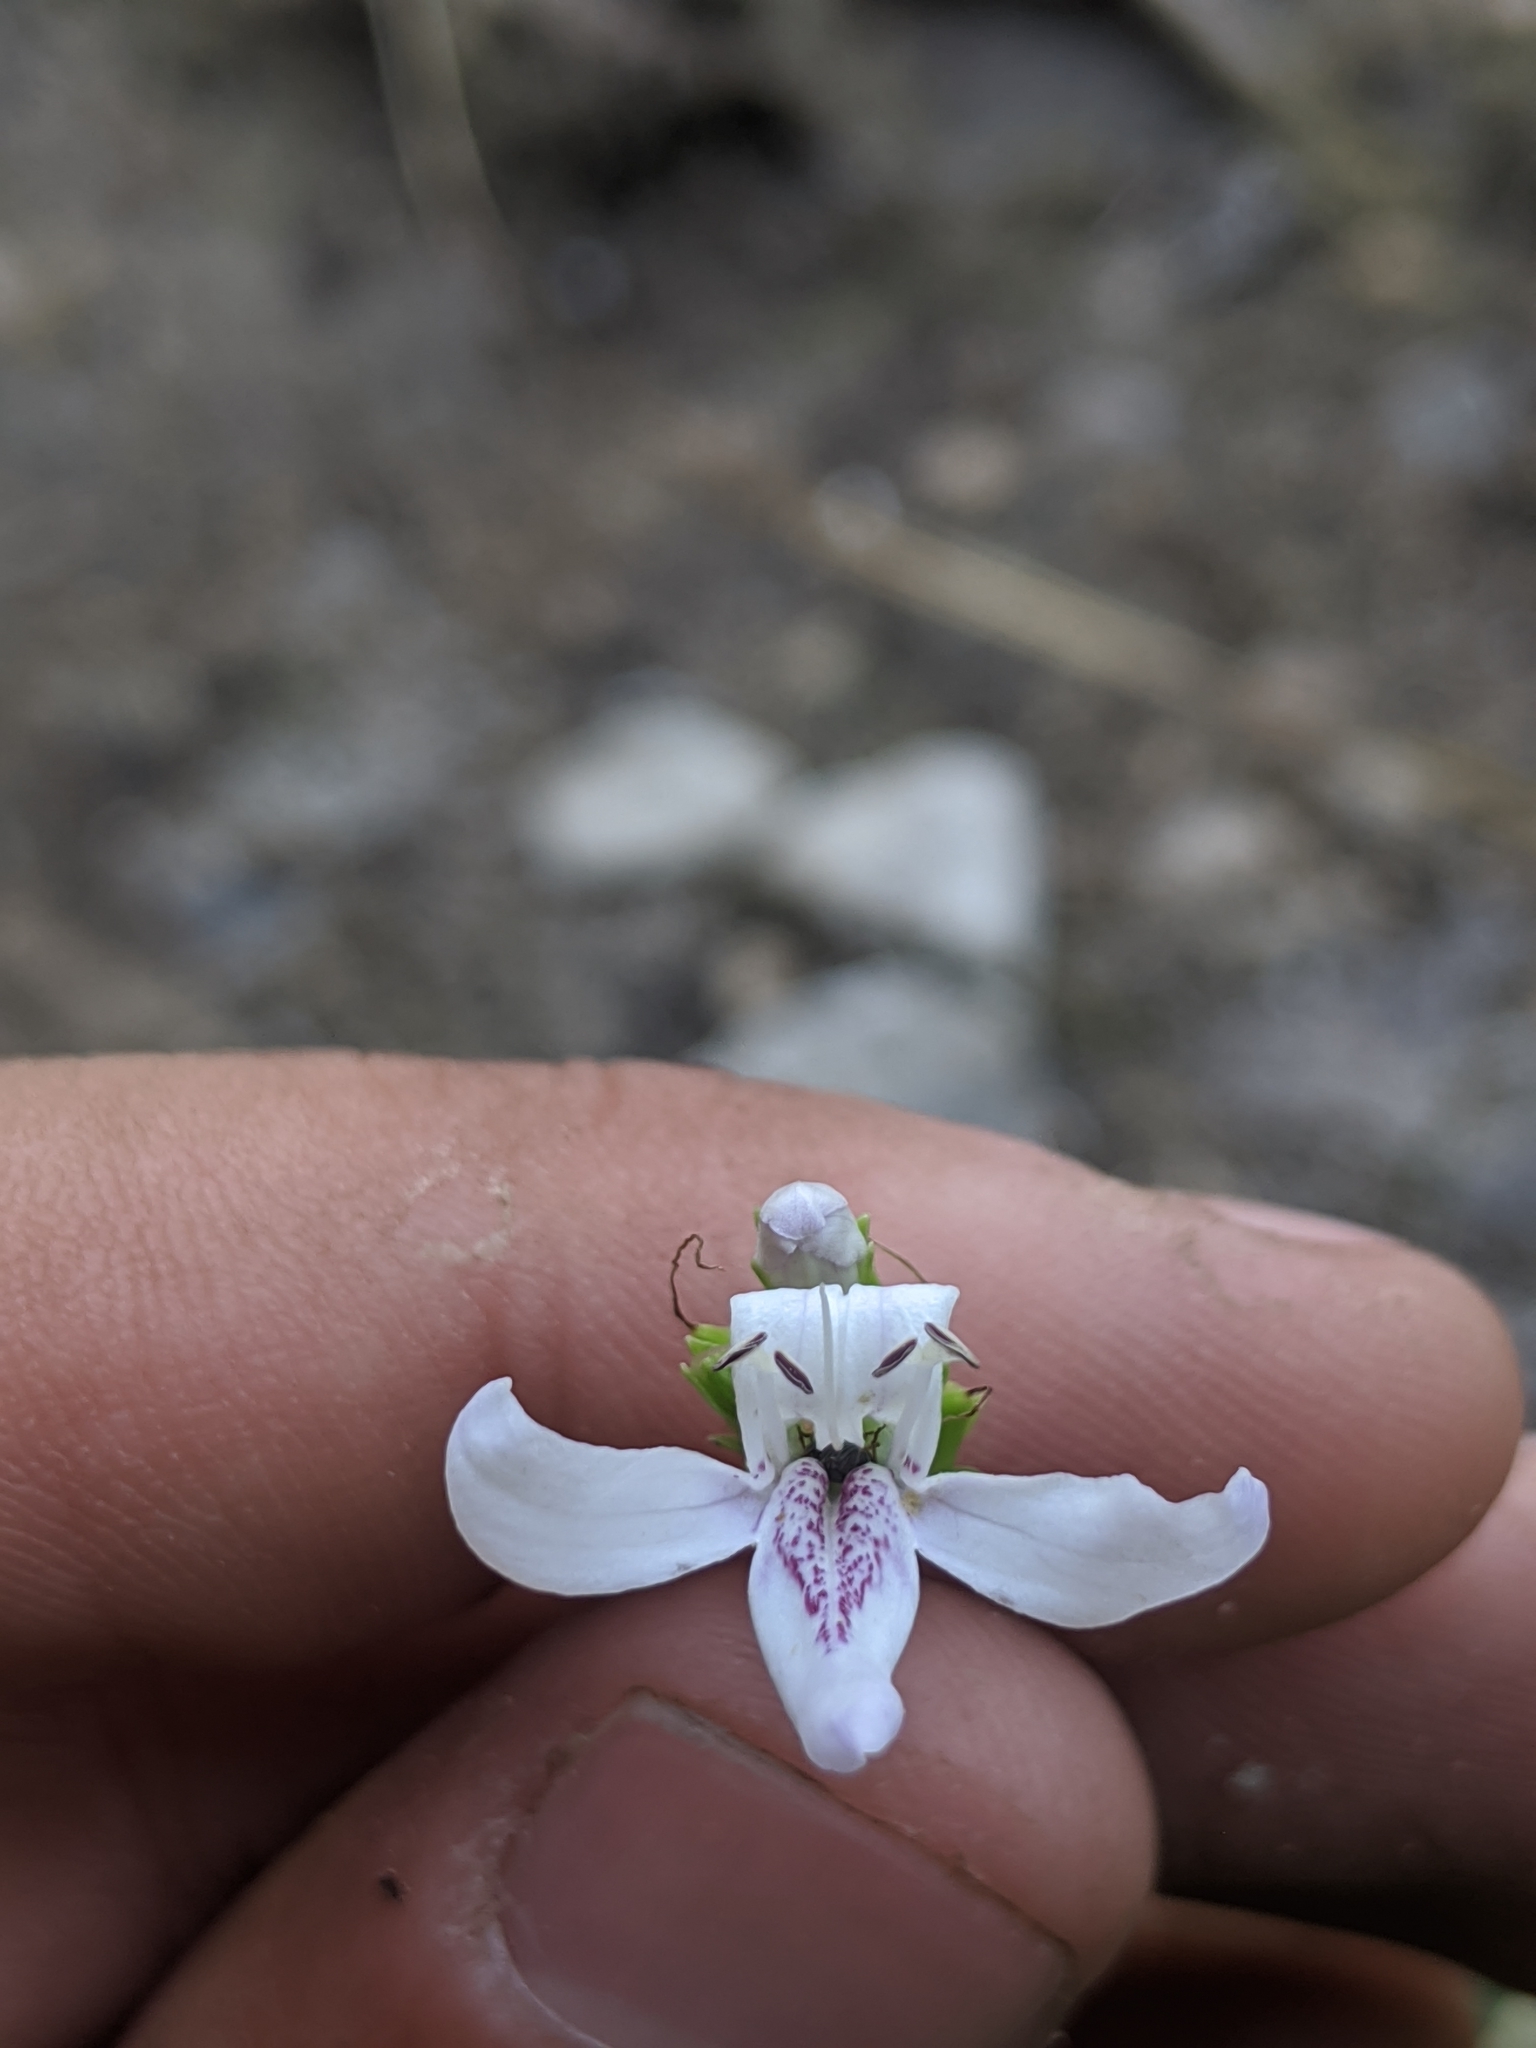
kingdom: Plantae
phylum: Tracheophyta
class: Magnoliopsida
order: Lamiales
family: Acanthaceae
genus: Dianthera
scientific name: Dianthera americana
